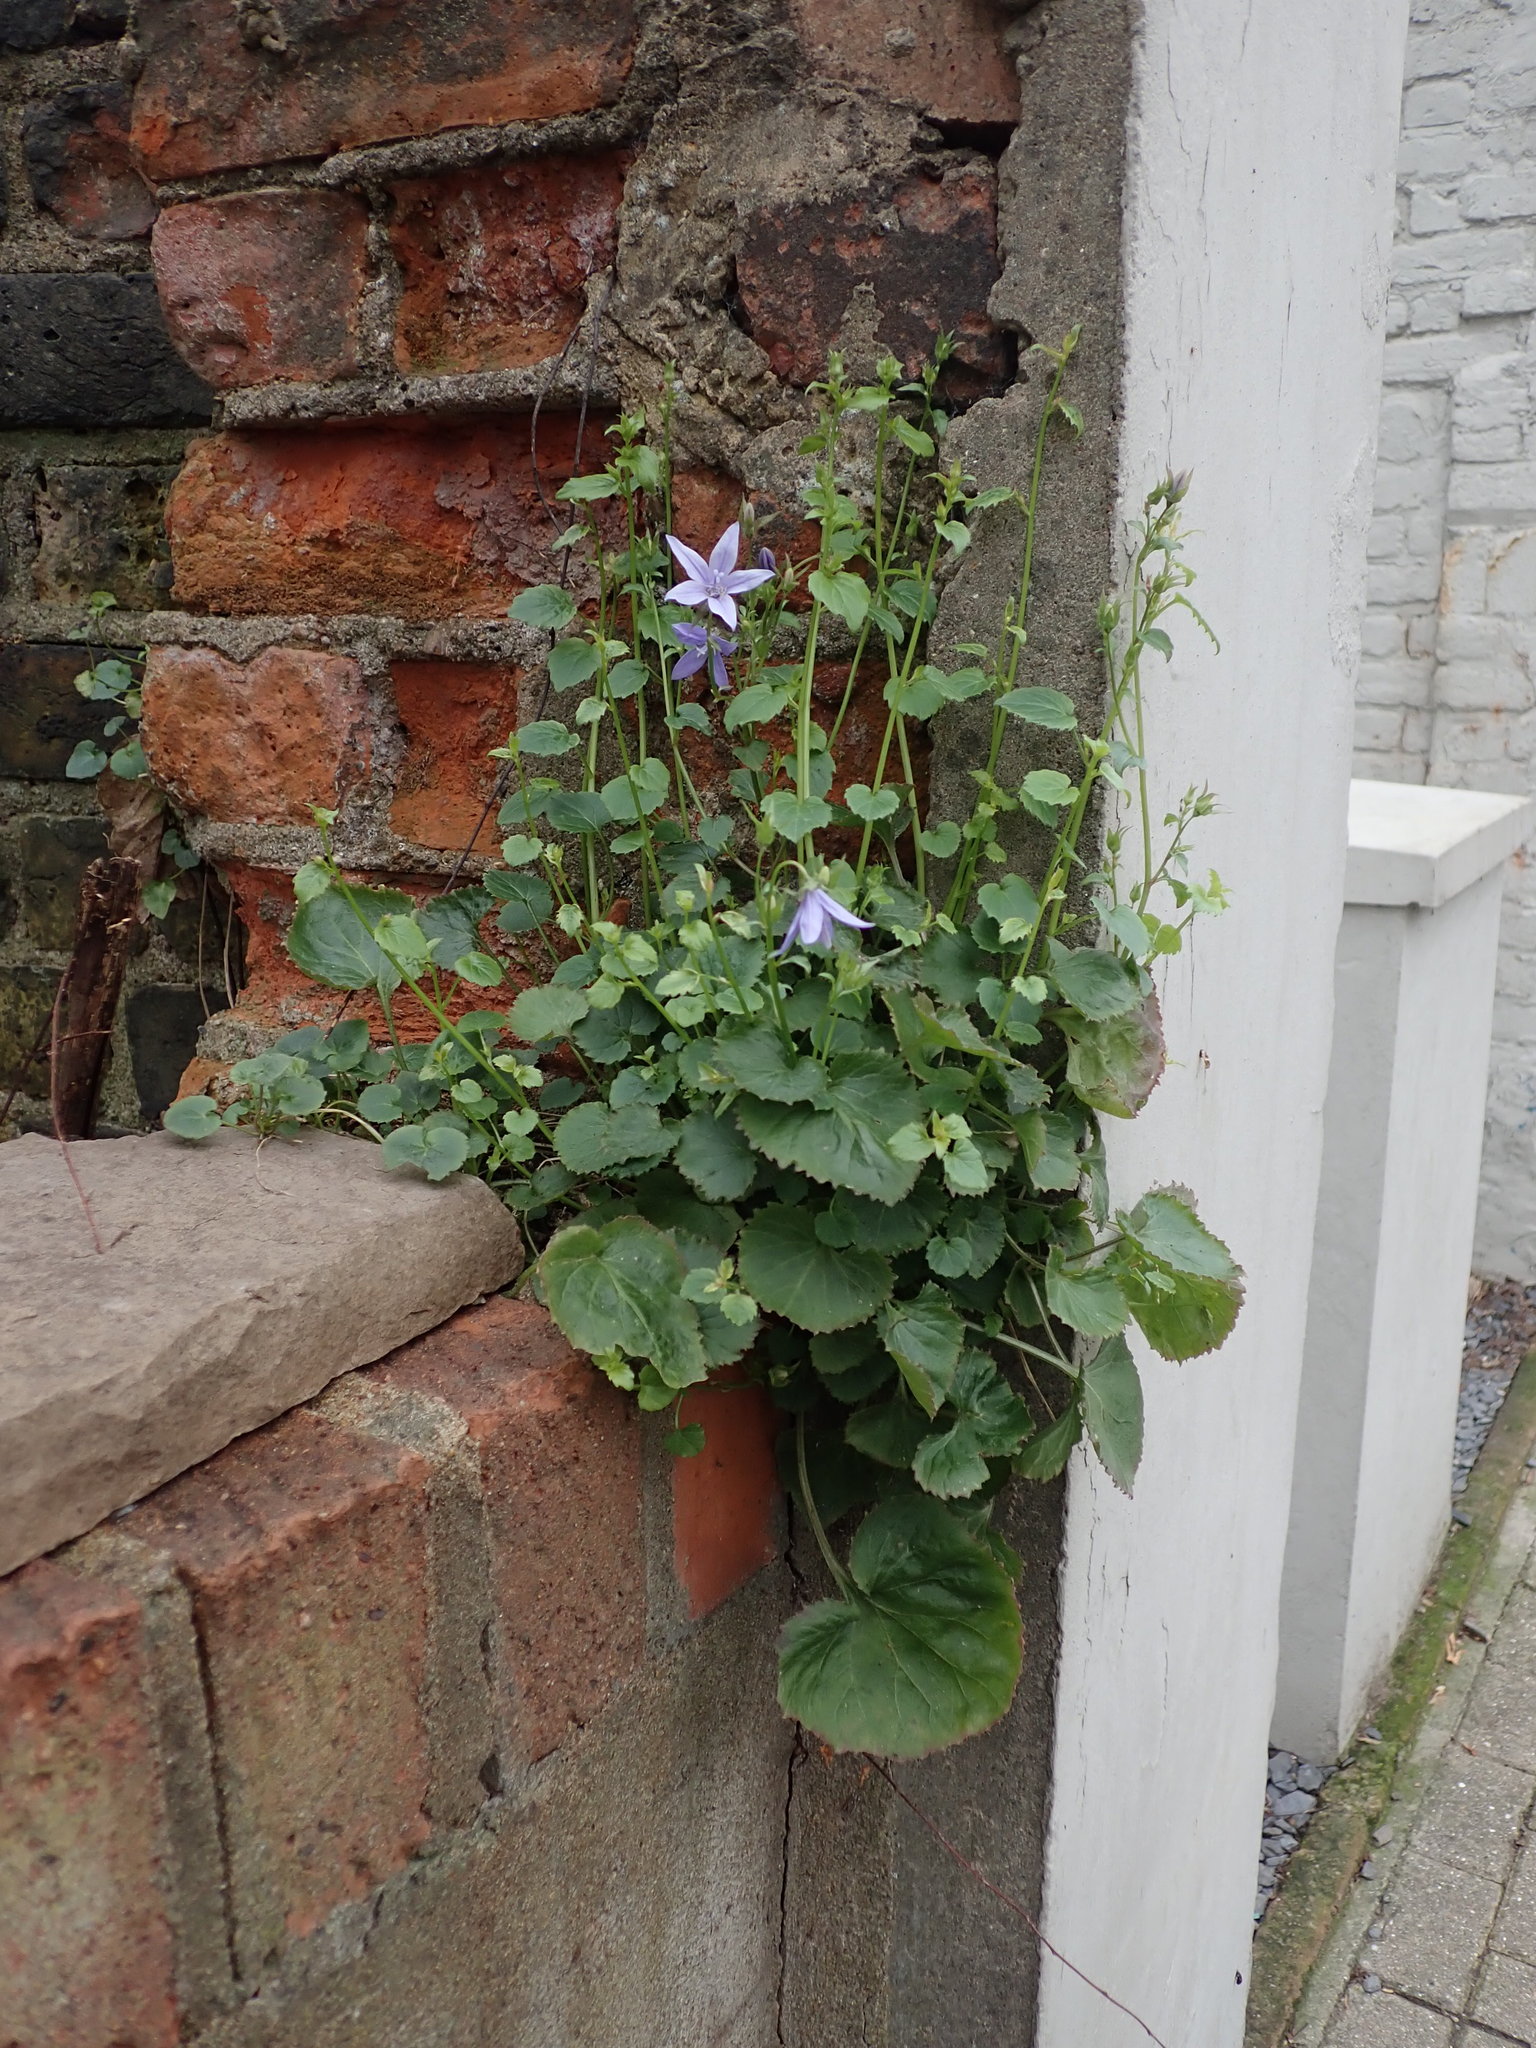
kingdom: Plantae
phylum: Tracheophyta
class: Magnoliopsida
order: Asterales
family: Campanulaceae
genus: Campanula
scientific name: Campanula poscharskyana
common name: Trailing bellflower
